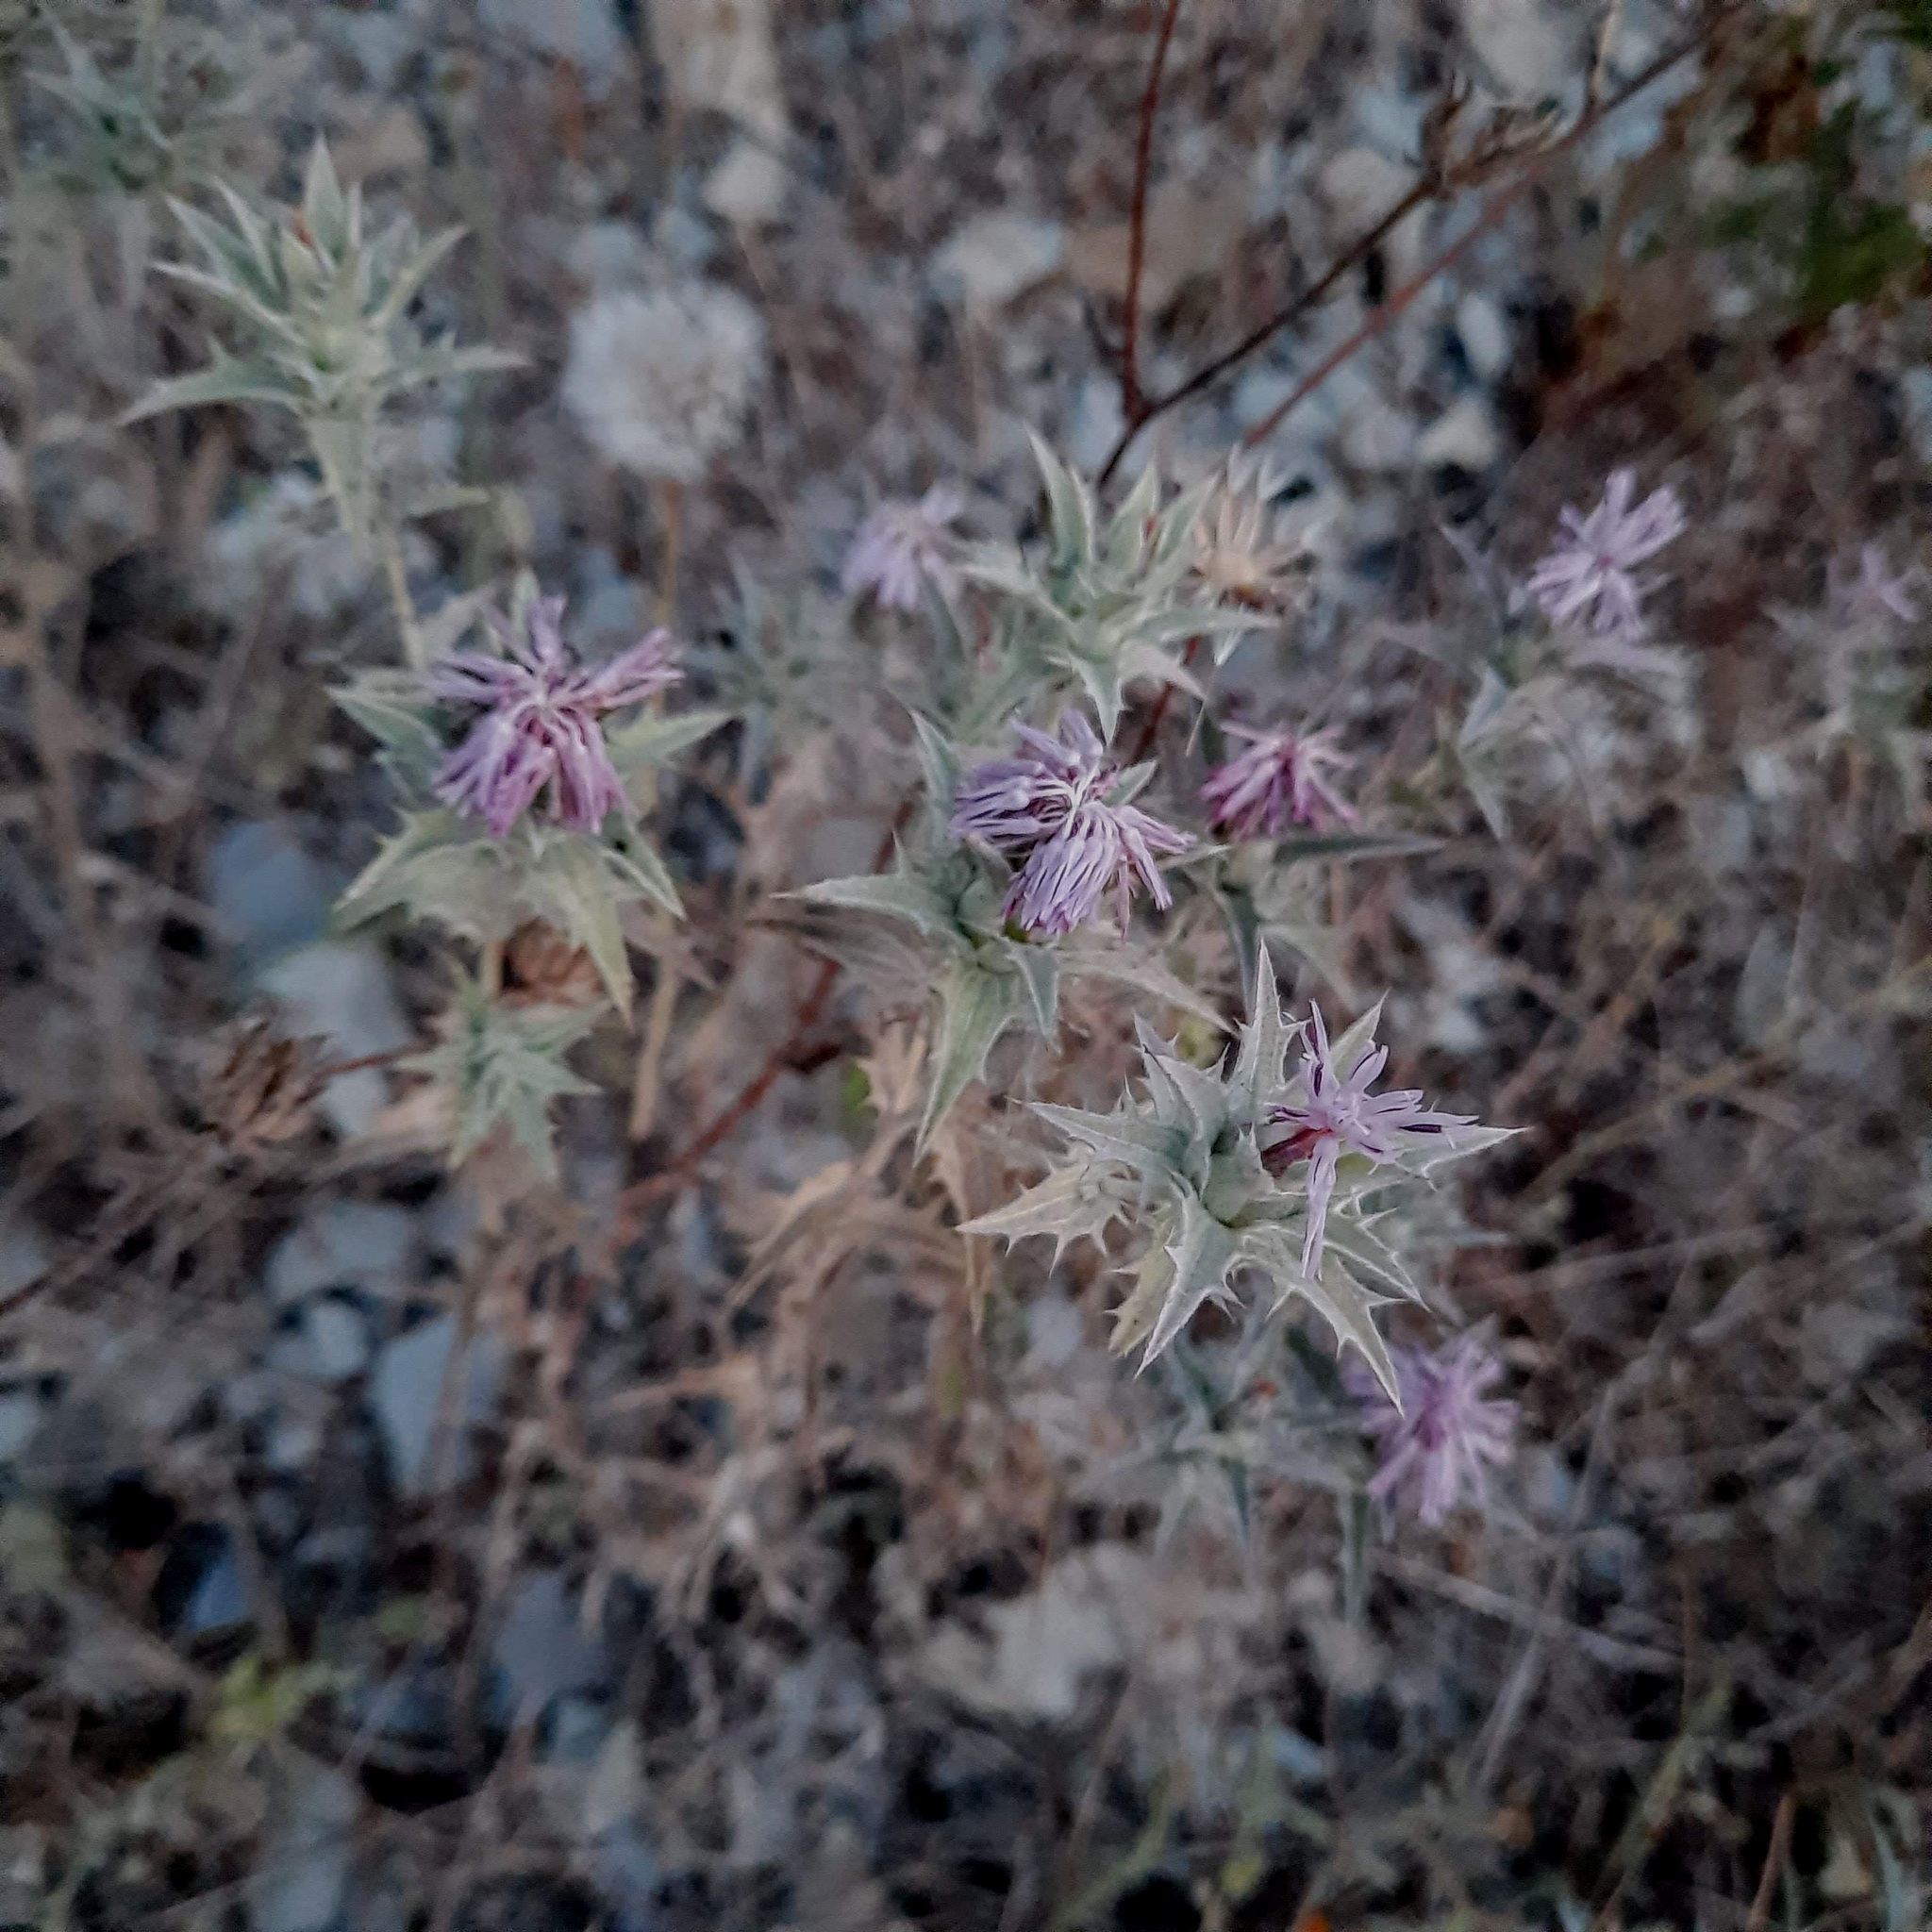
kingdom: Plantae
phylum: Tracheophyta
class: Magnoliopsida
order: Asterales
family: Asteraceae
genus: Carthamus
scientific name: Carthamus glaucus
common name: Mediterranean thistle
